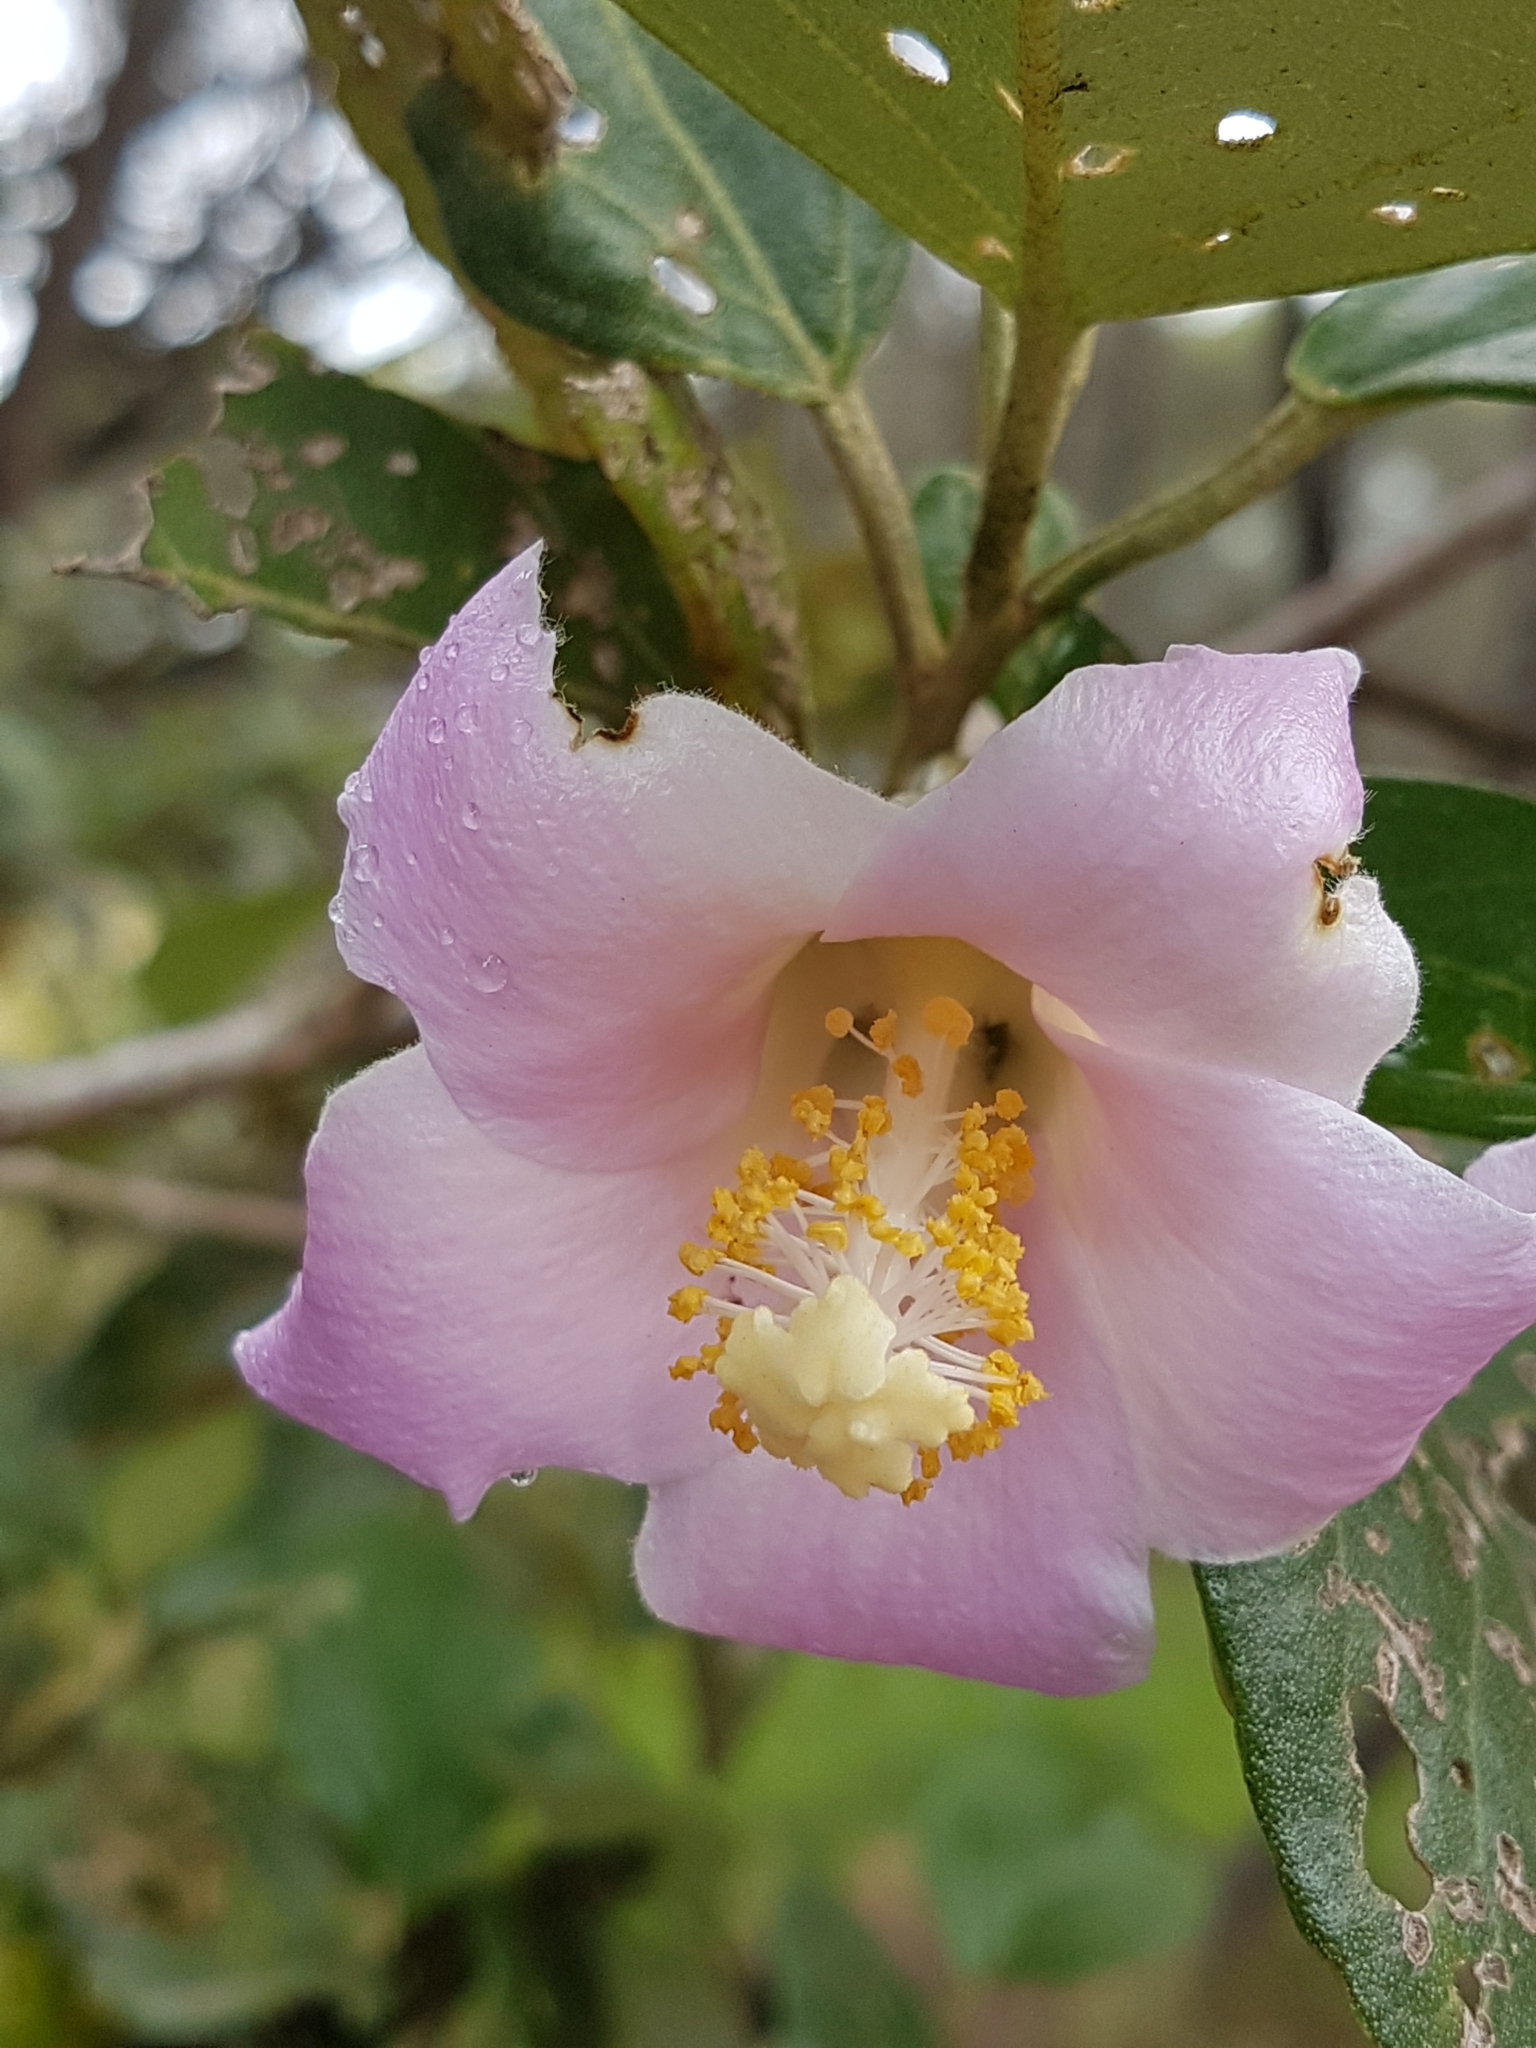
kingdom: Plantae
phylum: Tracheophyta
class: Magnoliopsida
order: Malvales
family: Malvaceae
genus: Lagunaria
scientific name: Lagunaria patersonia
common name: Cow itch tree
